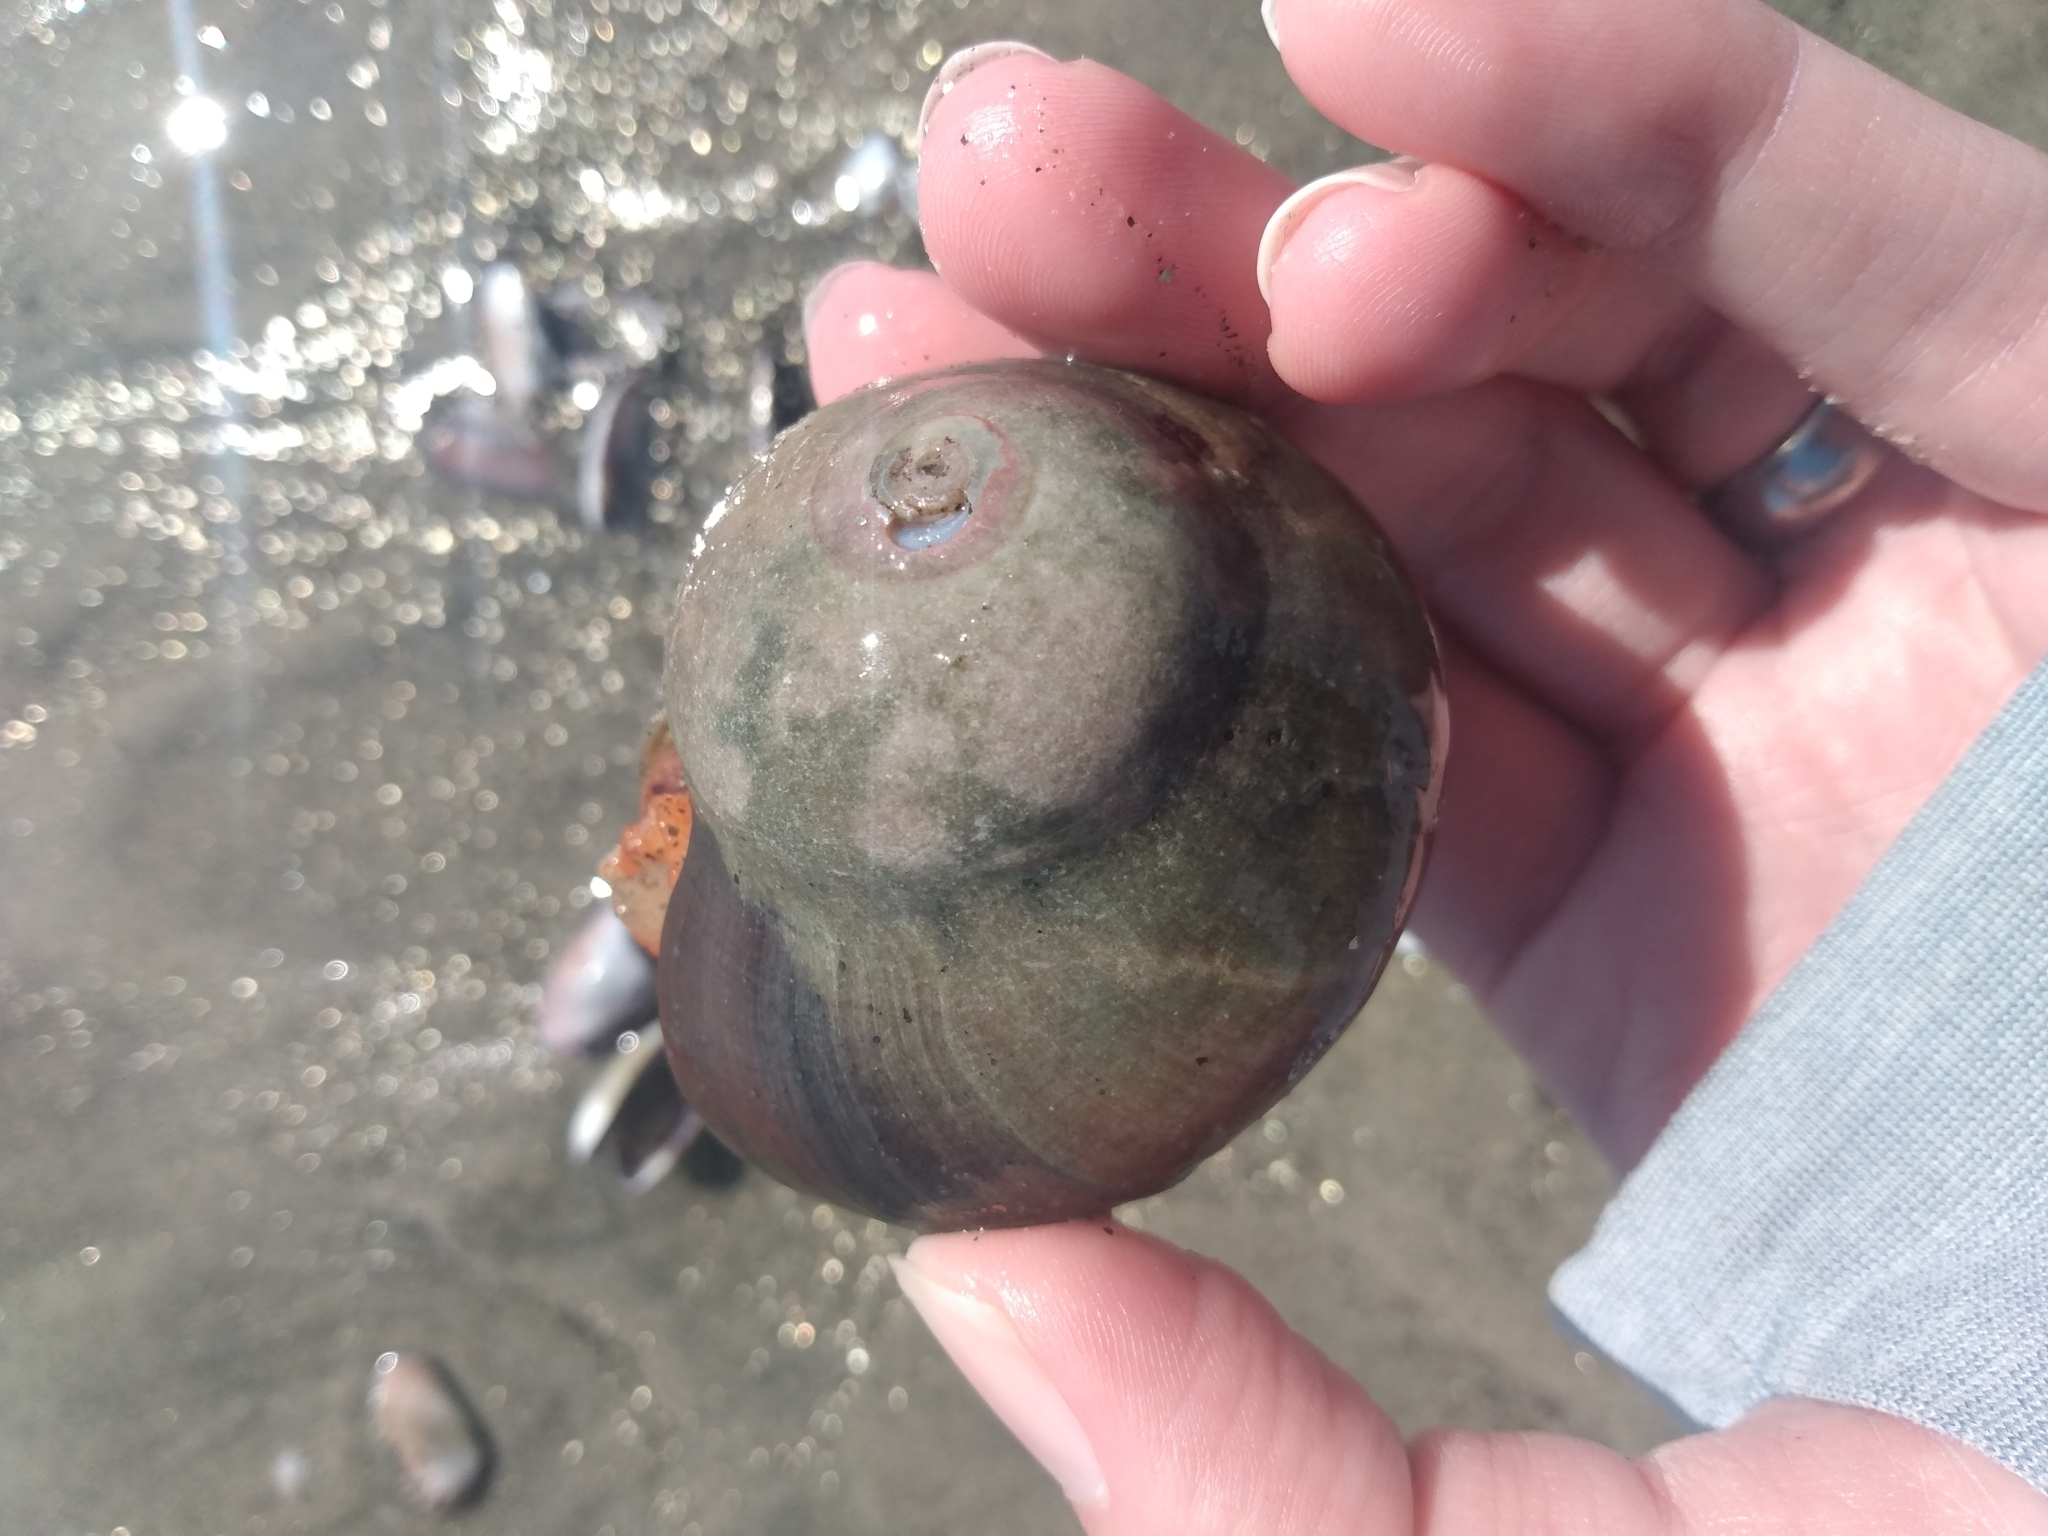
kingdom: Animalia
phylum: Mollusca
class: Gastropoda
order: Trochida
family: Tegulidae
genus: Norrisia
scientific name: Norrisia norrisii
